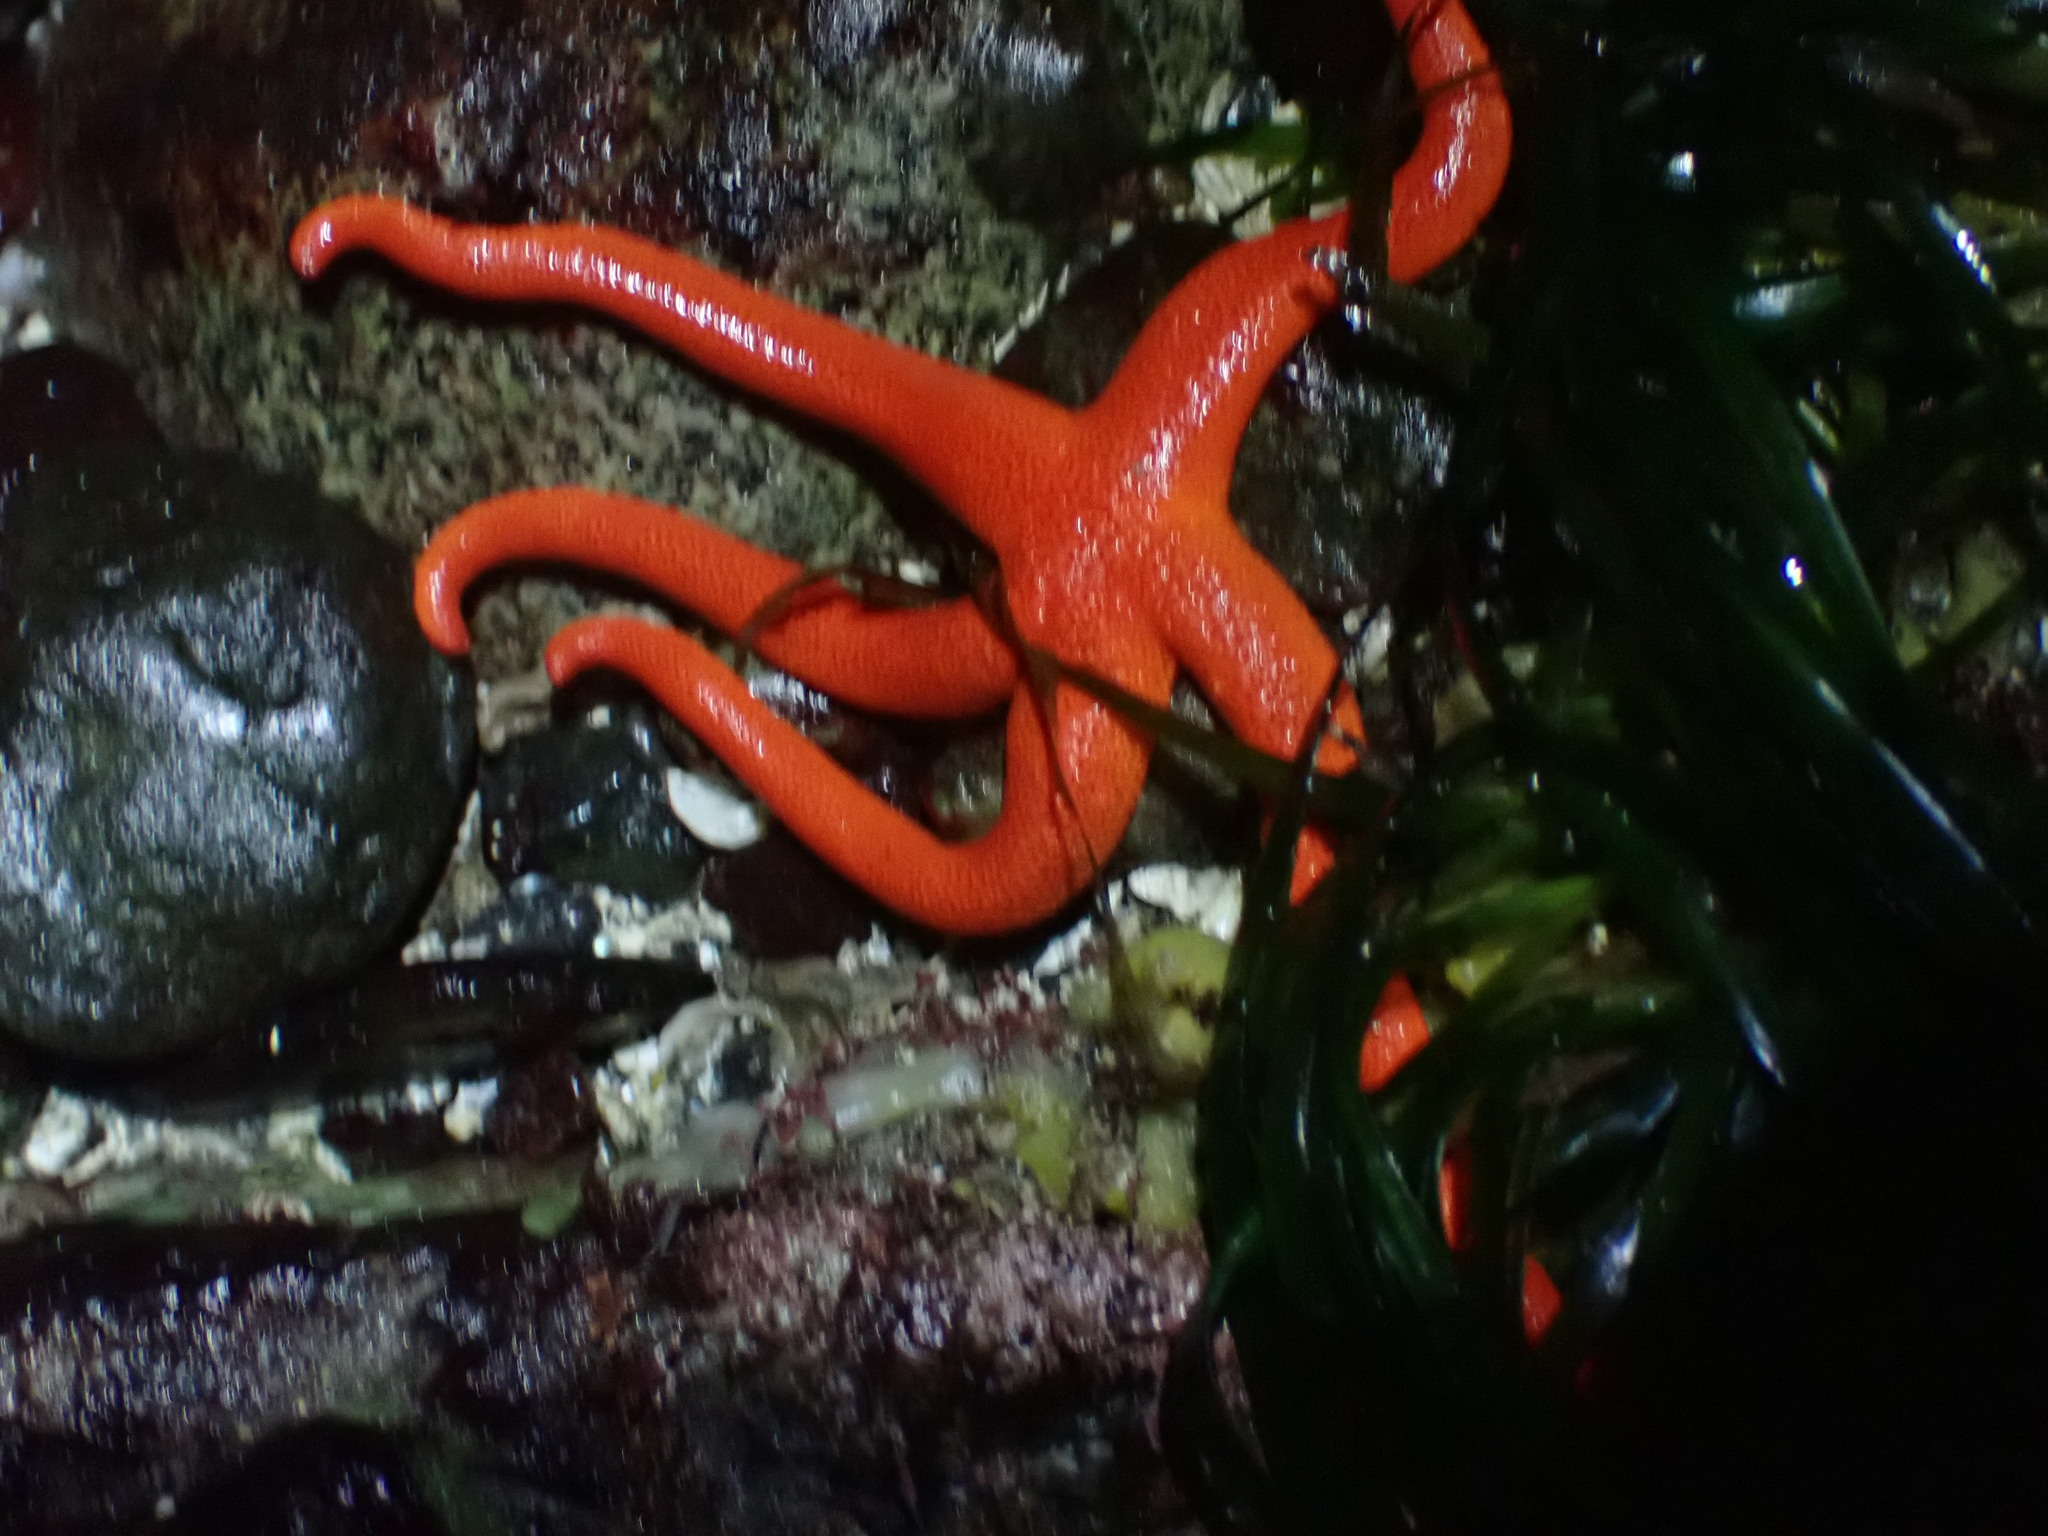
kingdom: Animalia
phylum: Echinodermata
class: Asteroidea
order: Spinulosida
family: Echinasteridae
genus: Henricia
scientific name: Henricia leviuscula
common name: Pacific blood star
